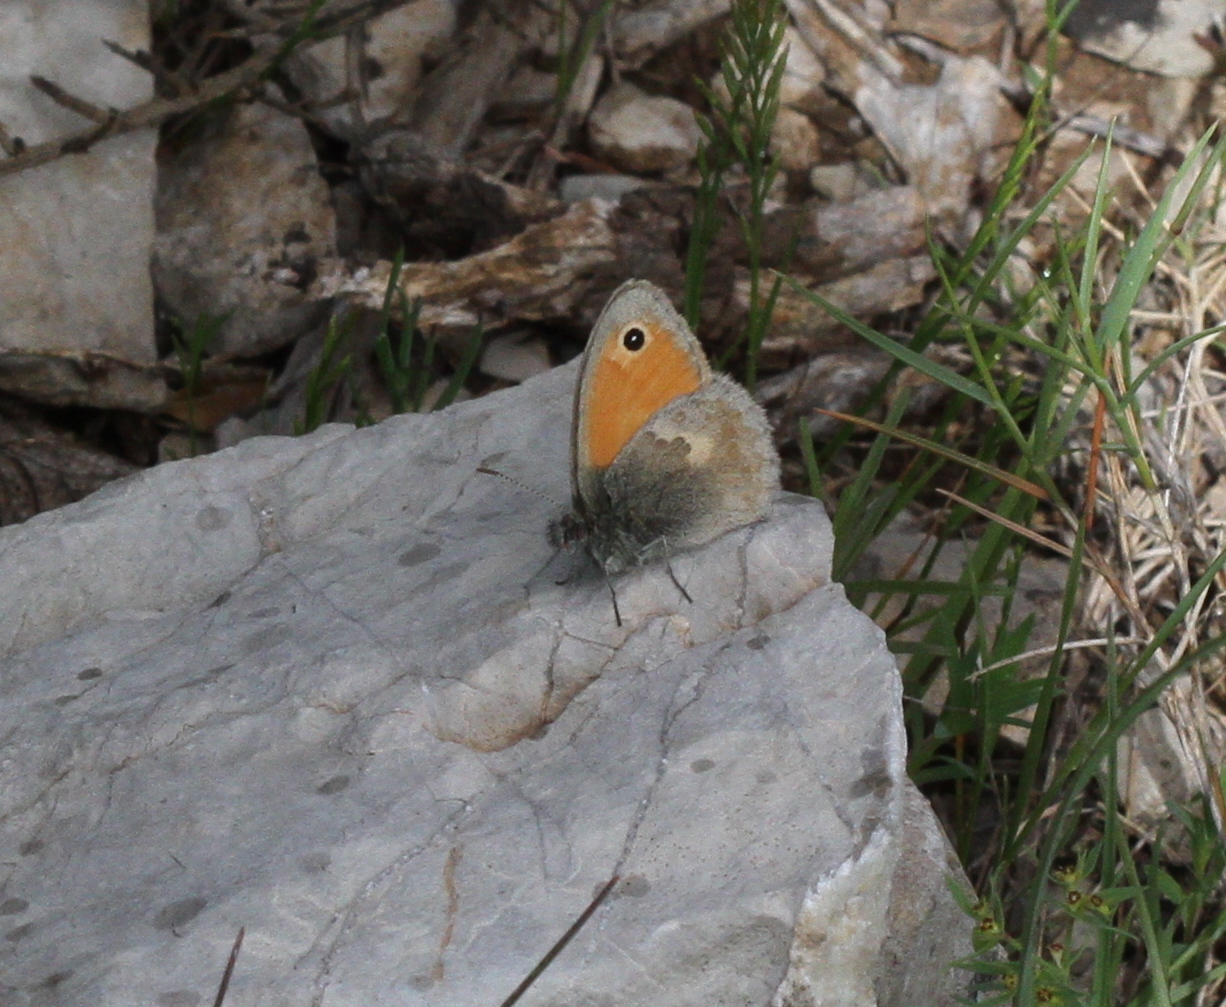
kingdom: Animalia
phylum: Arthropoda
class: Insecta
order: Lepidoptera
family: Nymphalidae
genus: Coenonympha
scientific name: Coenonympha pamphilus
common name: Small heath
